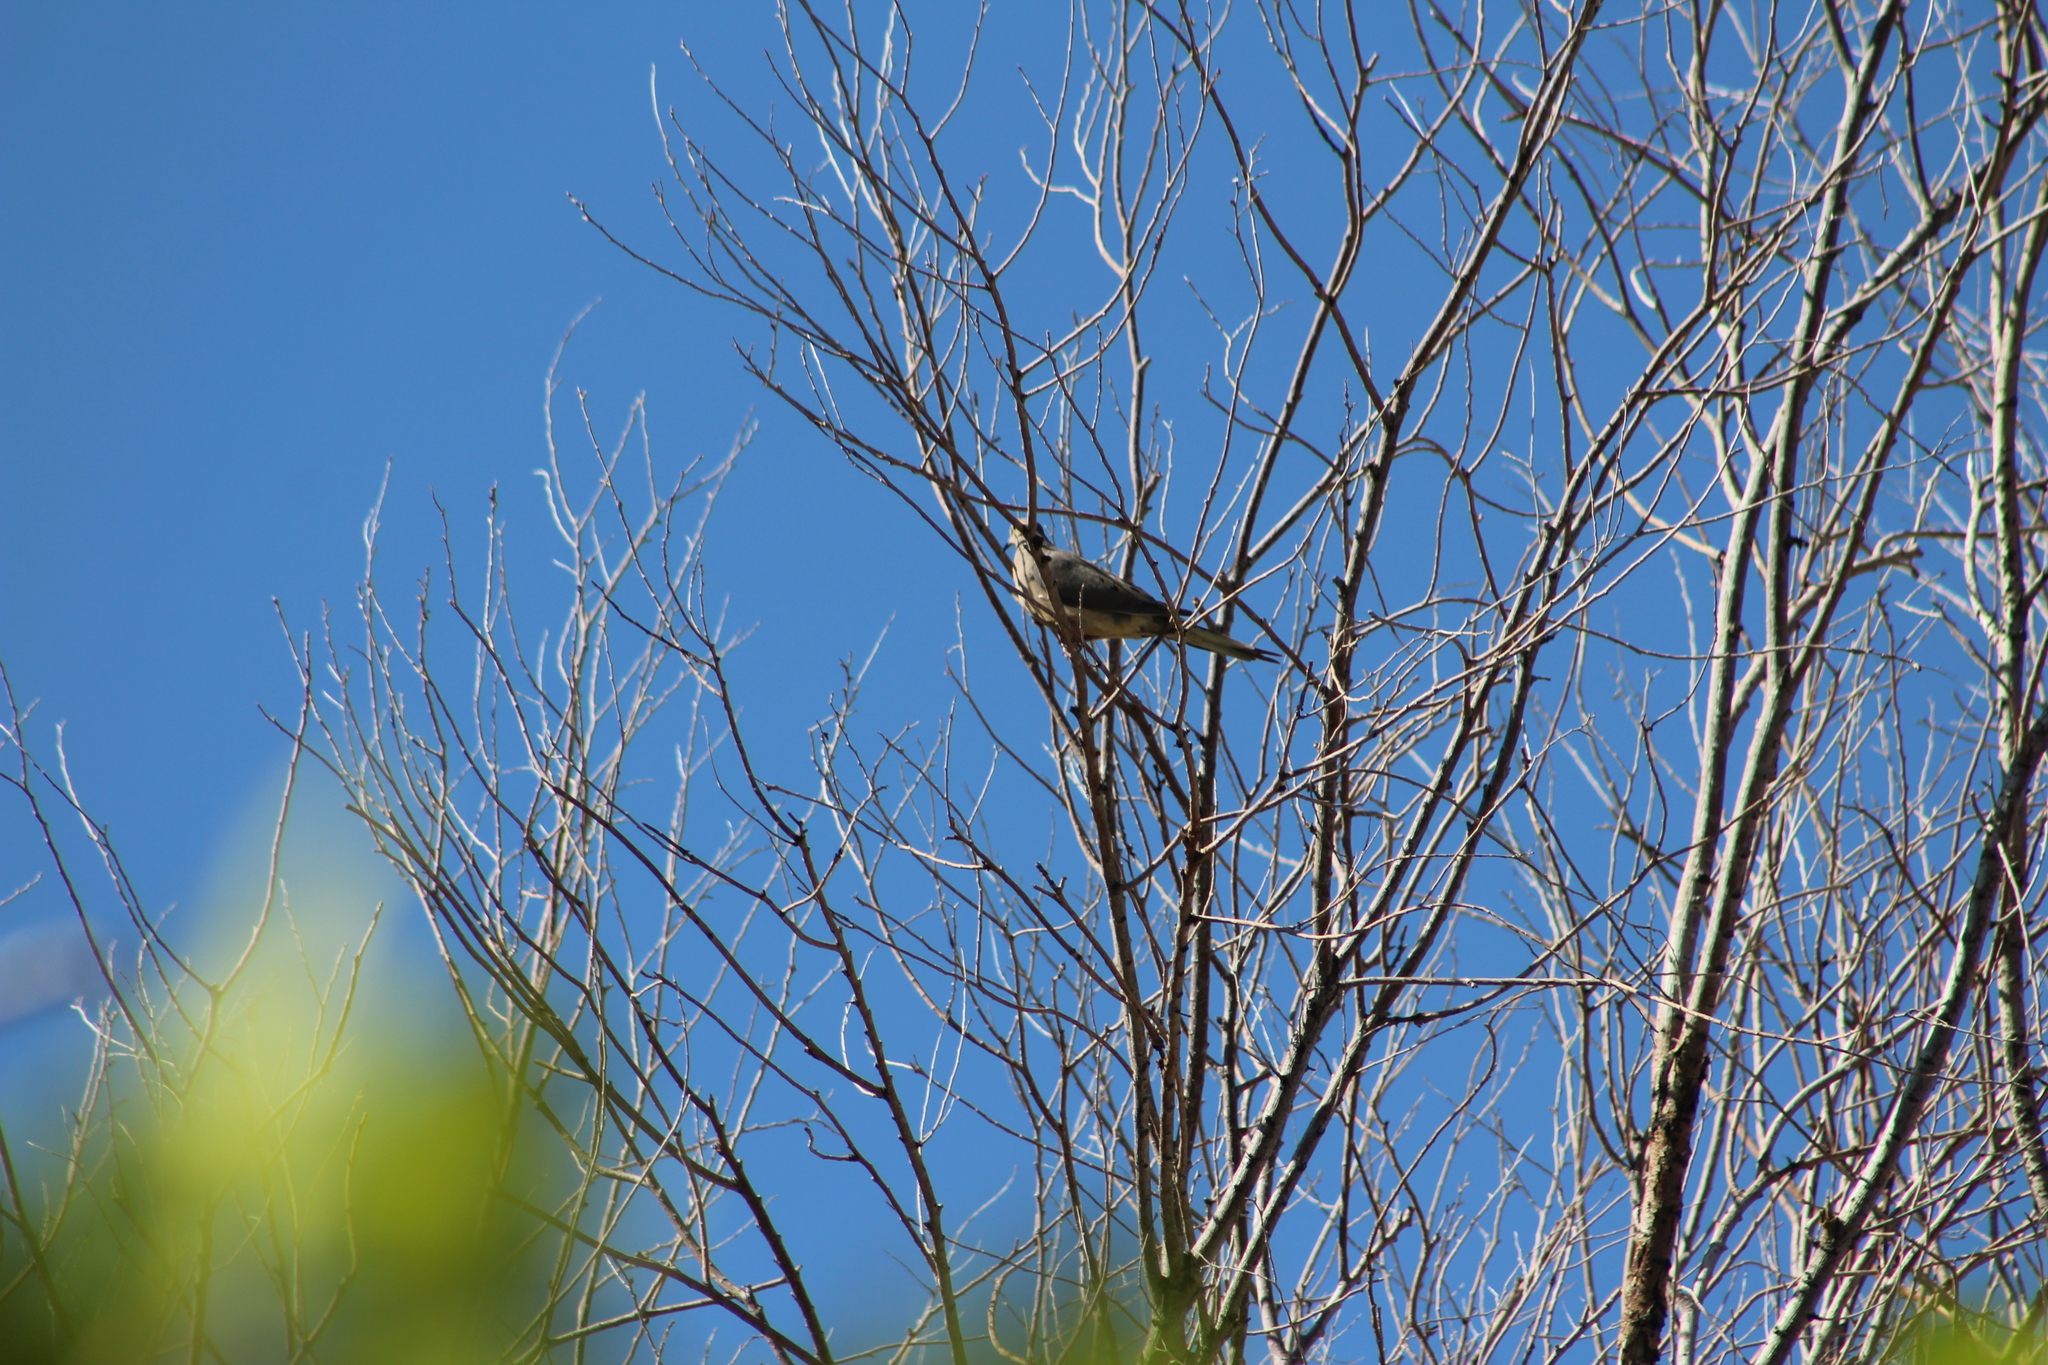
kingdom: Animalia
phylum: Chordata
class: Aves
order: Columbiformes
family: Columbidae
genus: Zenaida
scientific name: Zenaida macroura
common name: Mourning dove
